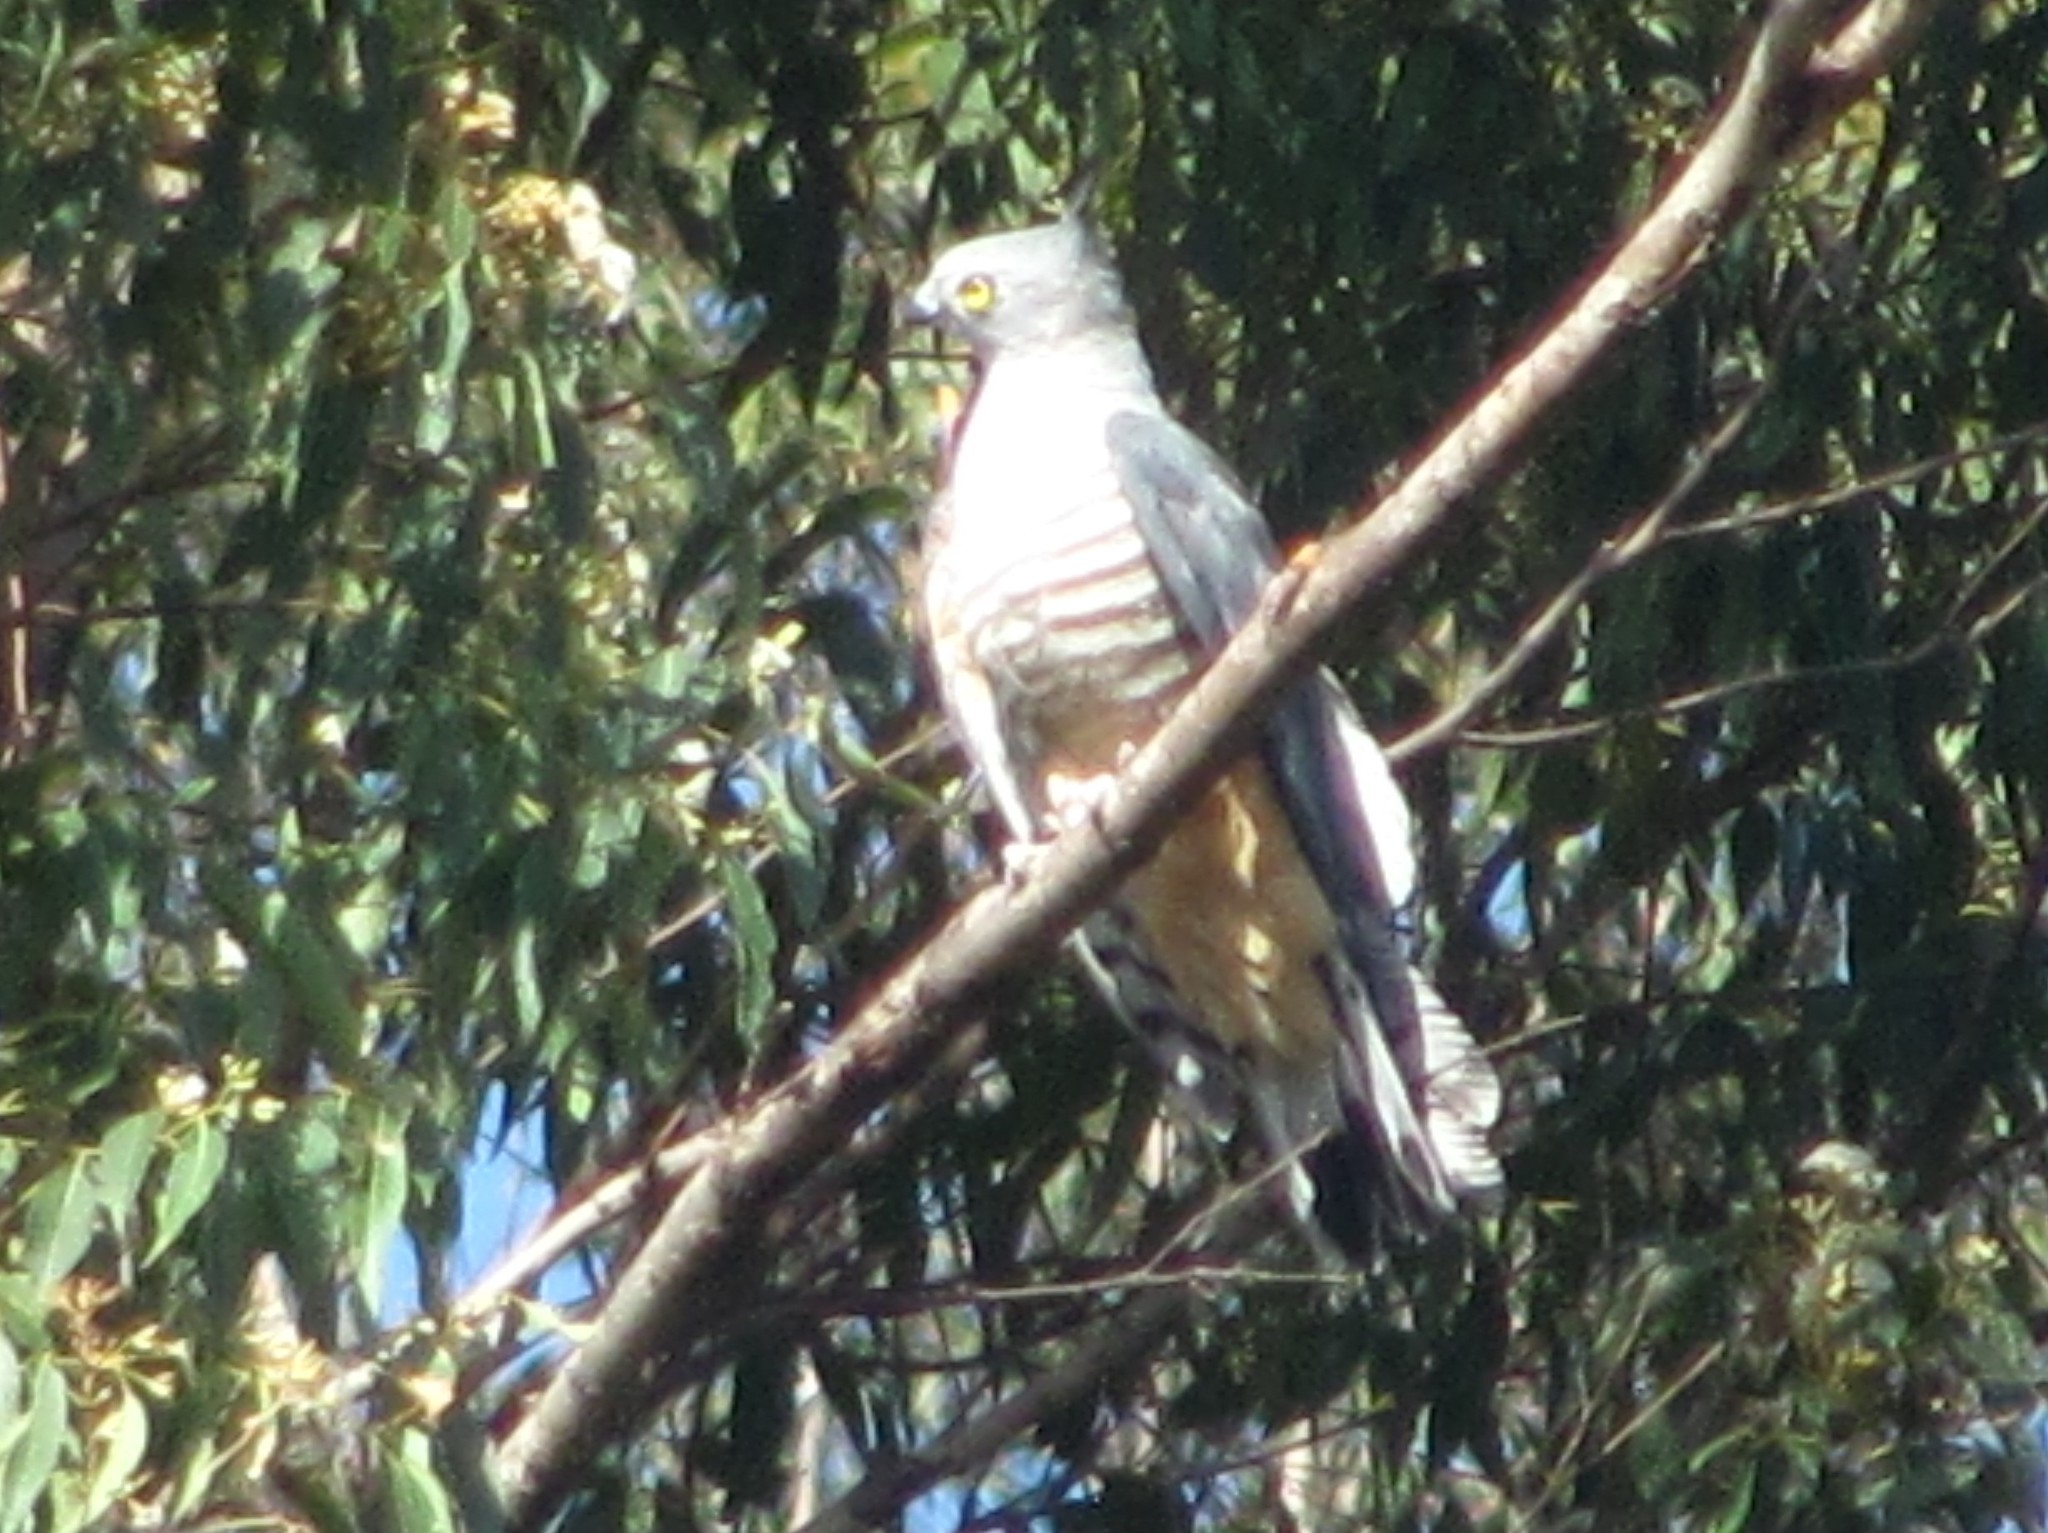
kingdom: Animalia
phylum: Chordata
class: Aves
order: Accipitriformes
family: Accipitridae
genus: Aviceda
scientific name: Aviceda subcristata
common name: Pacific baza
